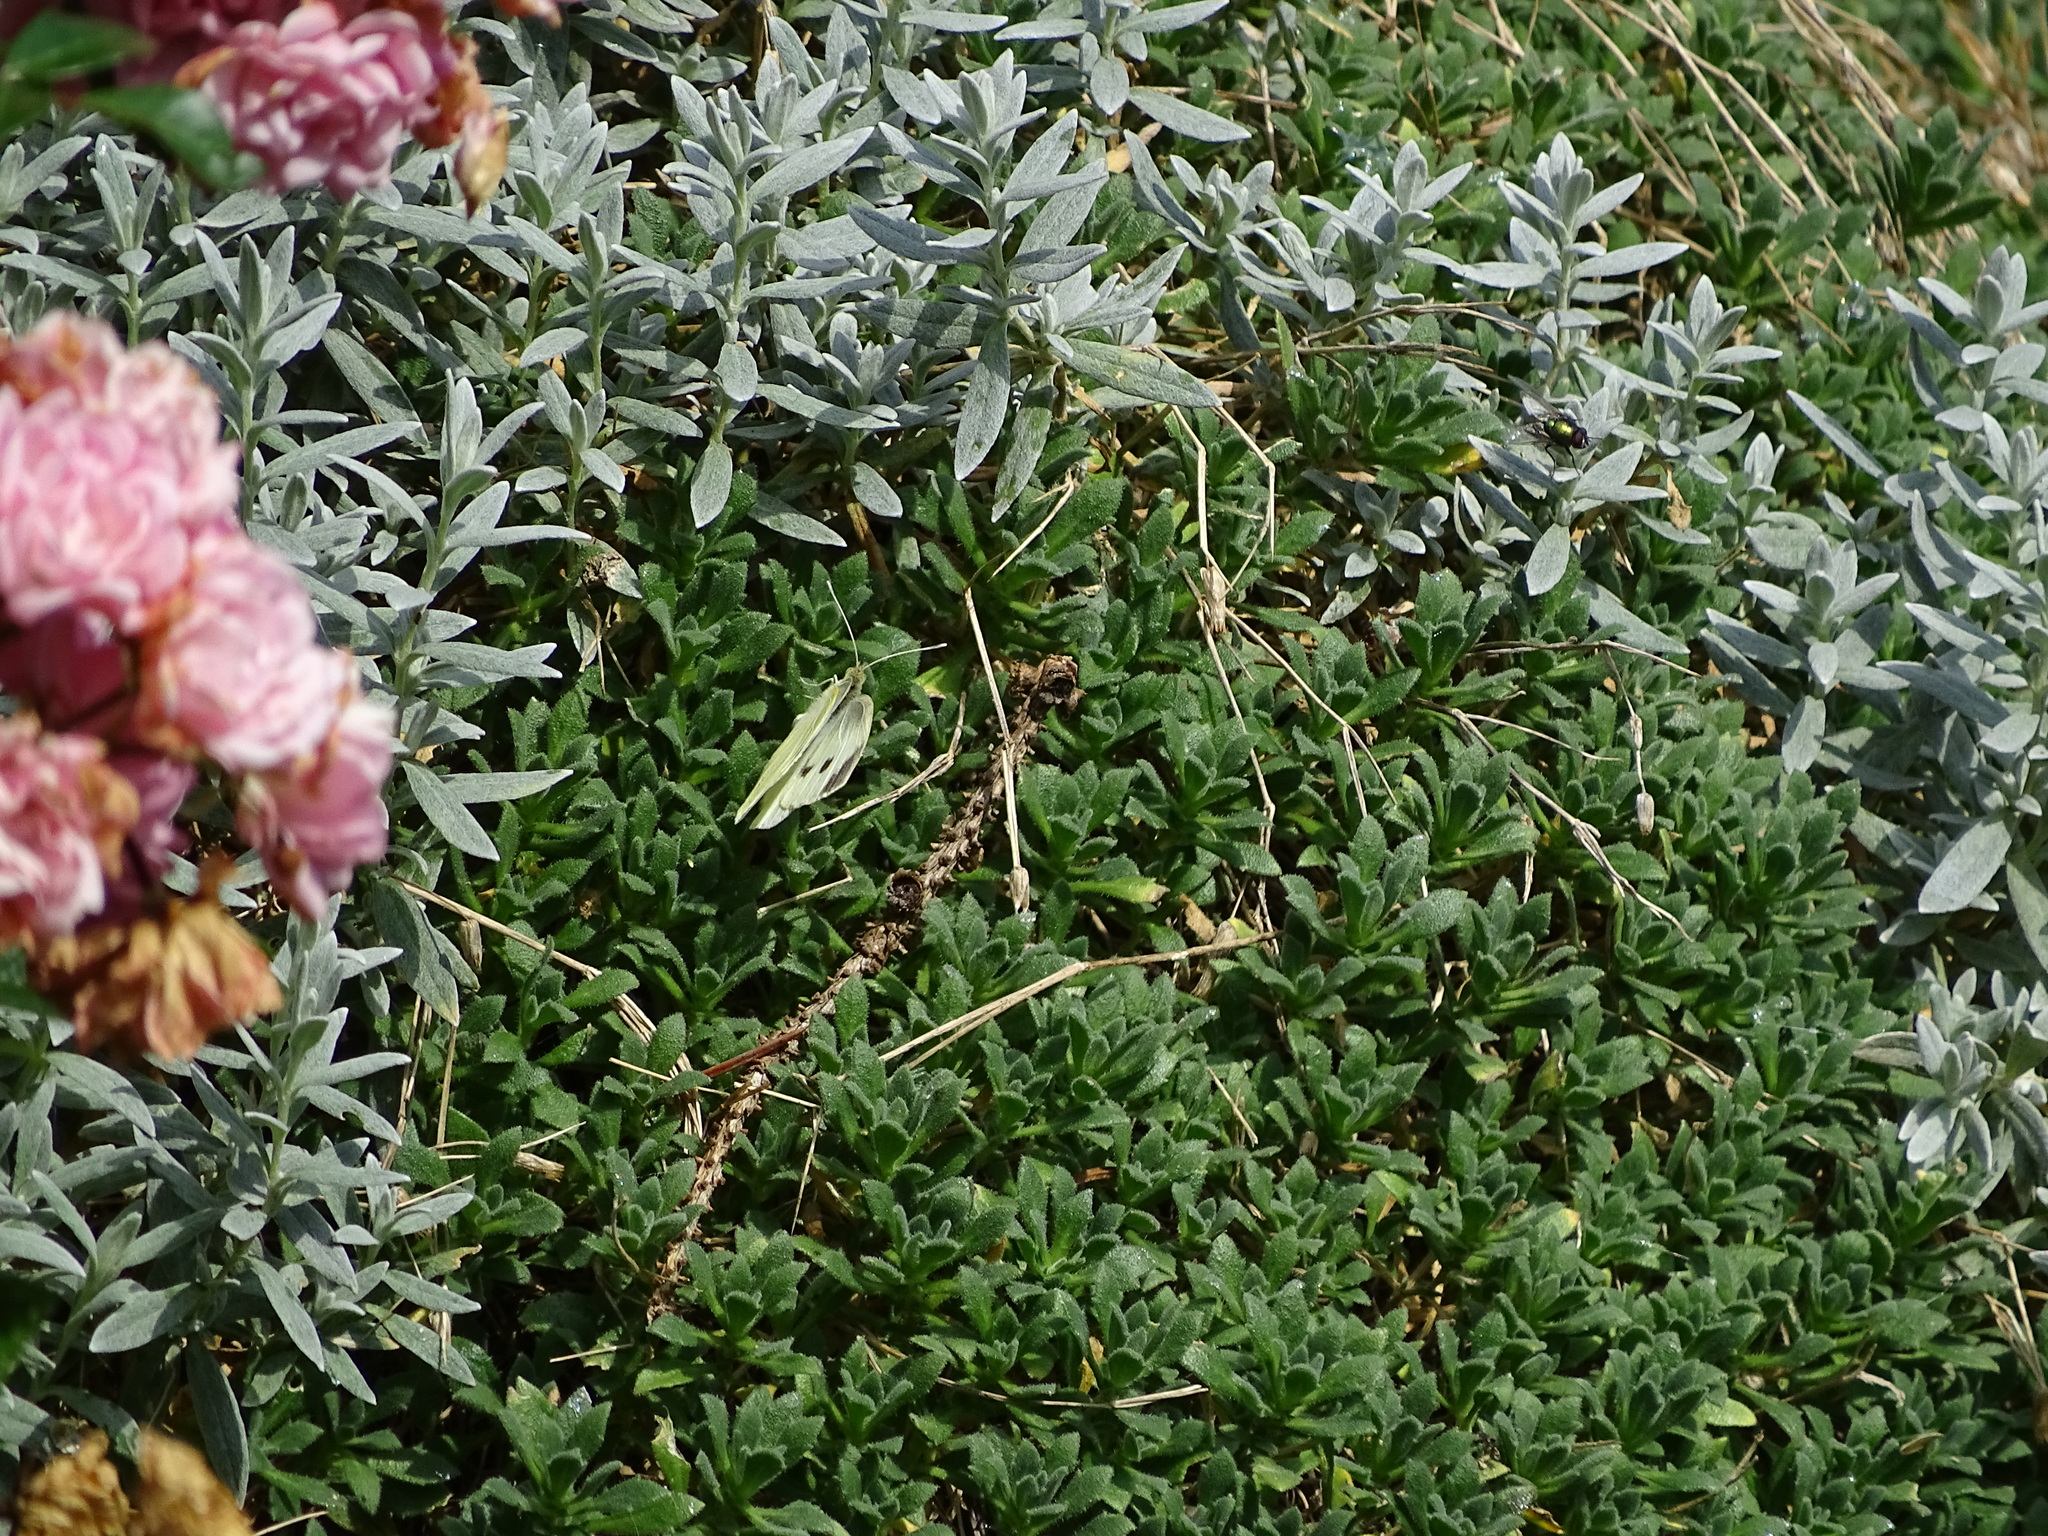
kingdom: Animalia
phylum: Arthropoda
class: Insecta
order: Lepidoptera
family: Pieridae
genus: Pieris
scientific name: Pieris mannii
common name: Southern small white
